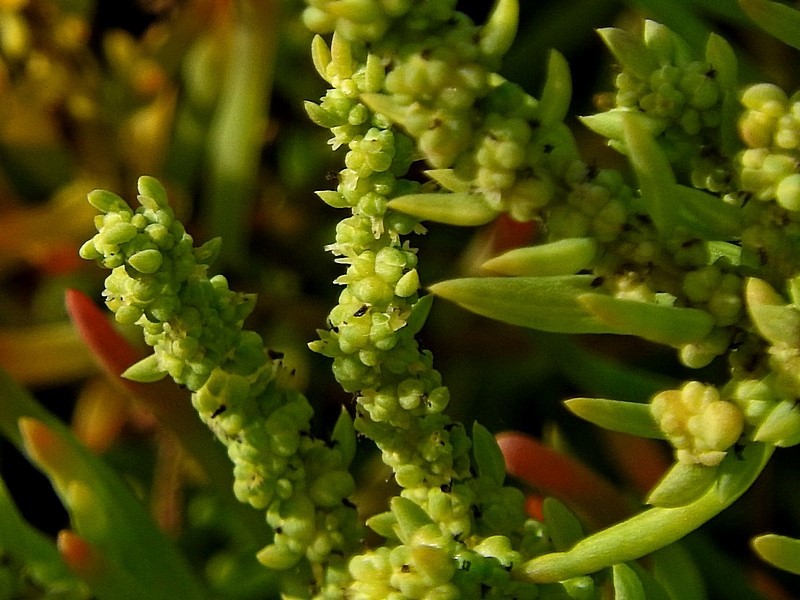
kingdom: Plantae
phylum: Tracheophyta
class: Magnoliopsida
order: Caryophyllales
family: Amaranthaceae
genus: Suaeda
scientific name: Suaeda australis
